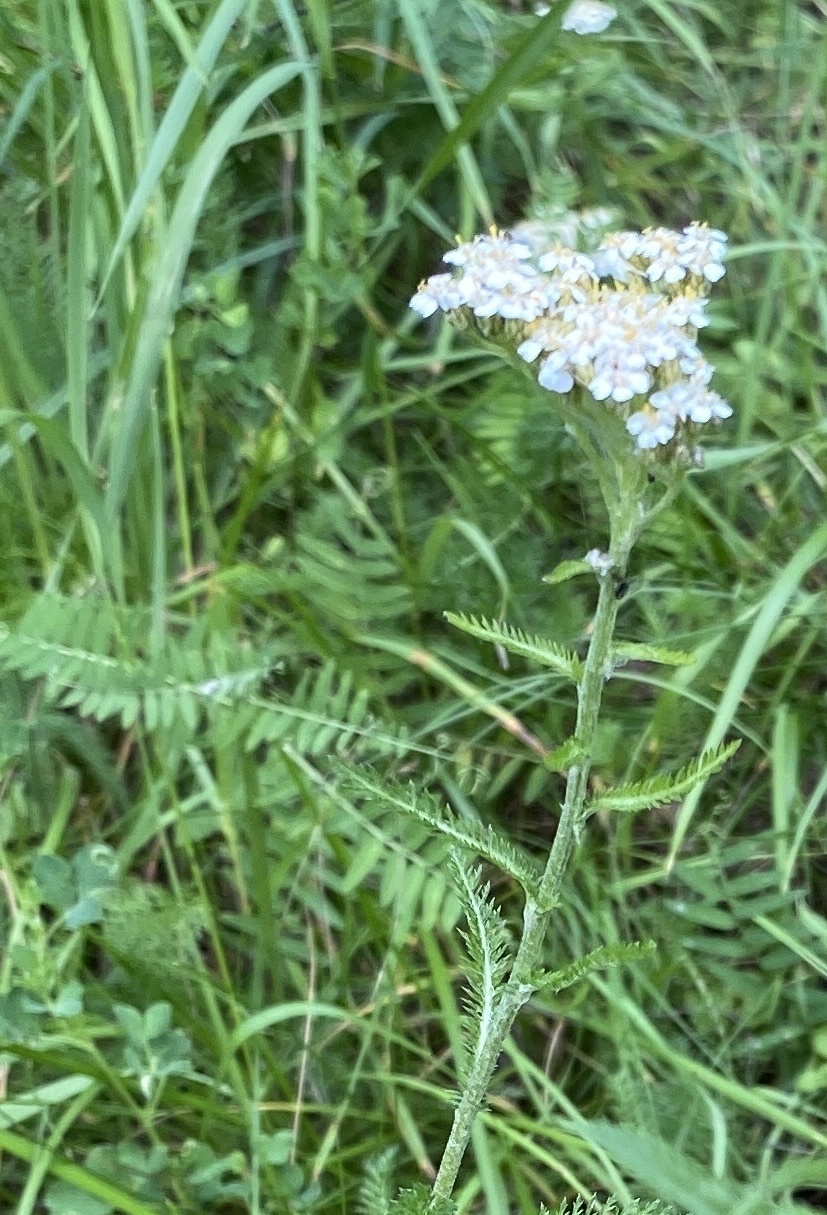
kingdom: Plantae
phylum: Tracheophyta
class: Magnoliopsida
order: Asterales
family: Asteraceae
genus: Achillea
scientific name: Achillea millefolium
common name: Yarrow
